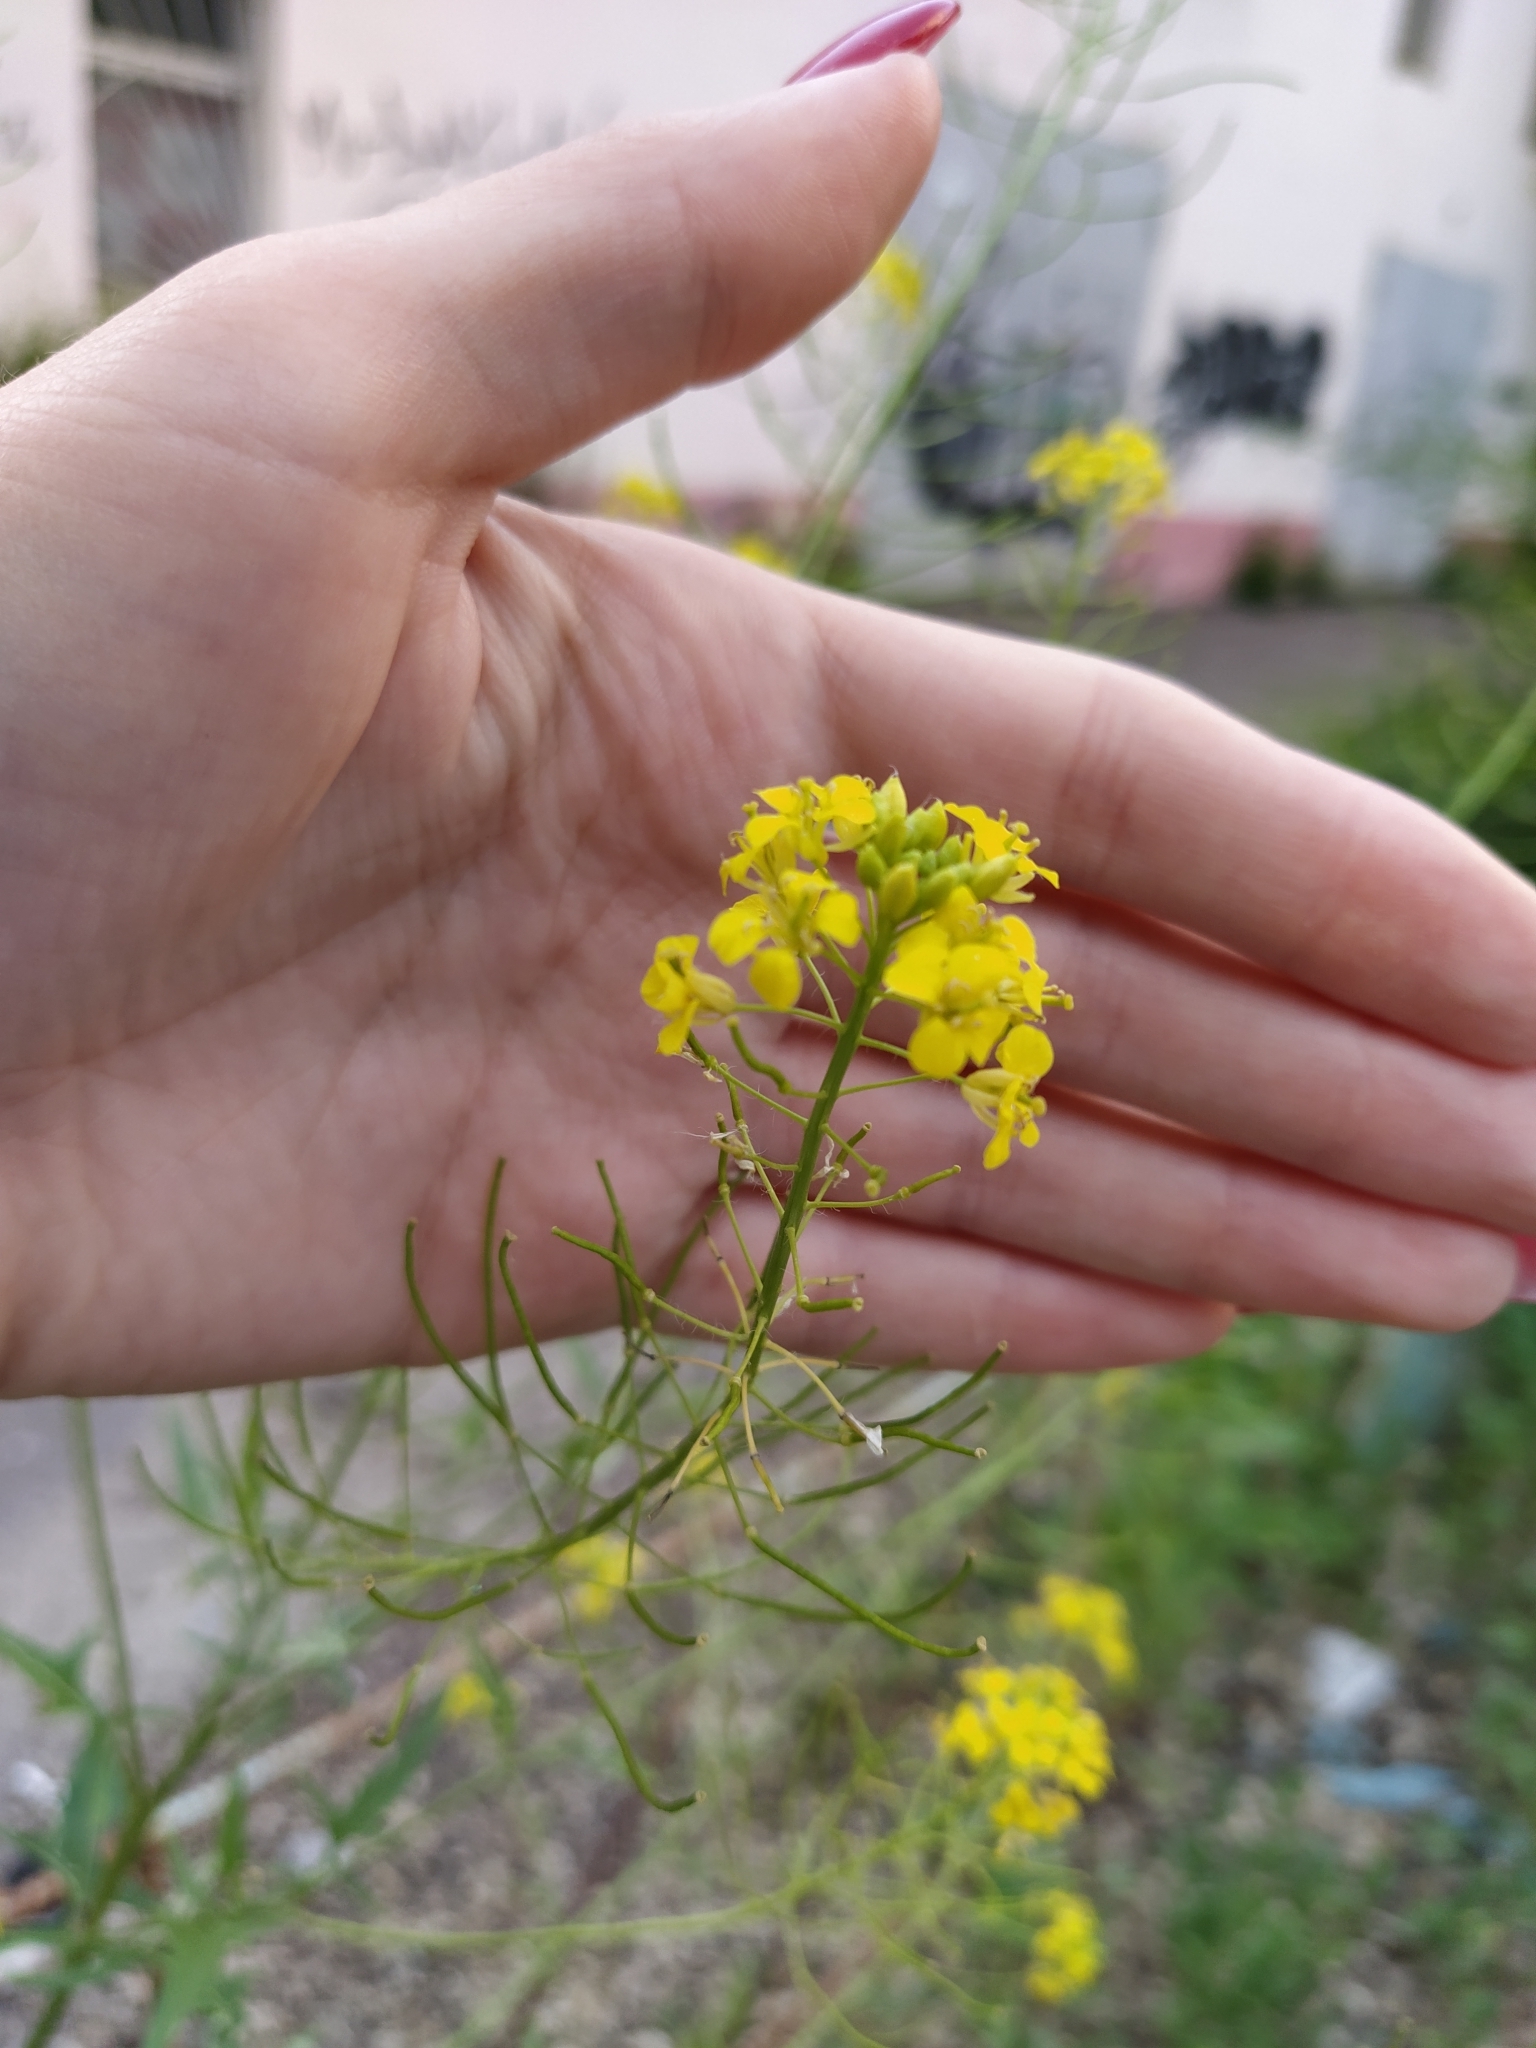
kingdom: Plantae
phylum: Tracheophyta
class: Magnoliopsida
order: Brassicales
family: Brassicaceae
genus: Sisymbrium
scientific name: Sisymbrium loeselii
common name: False london-rocket
